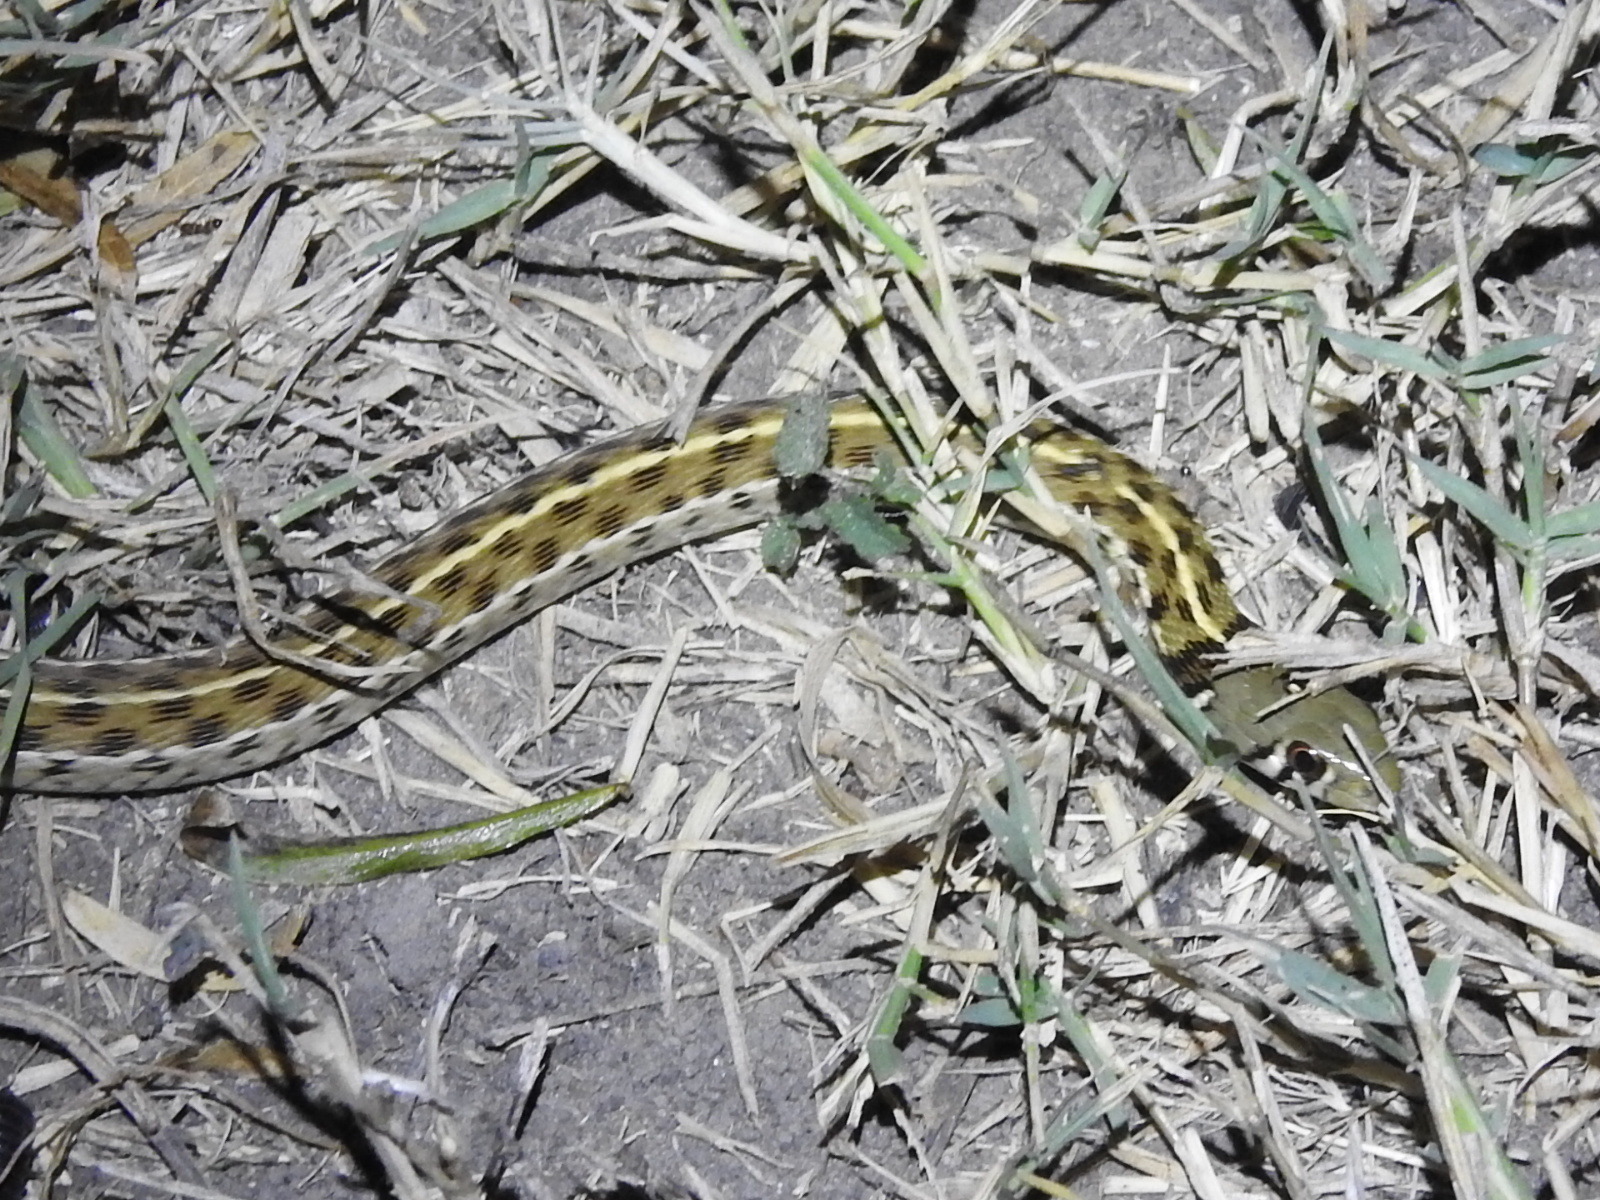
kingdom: Animalia
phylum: Chordata
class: Squamata
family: Colubridae
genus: Thamnophis
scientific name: Thamnophis marcianus
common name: Checkered garter snake
